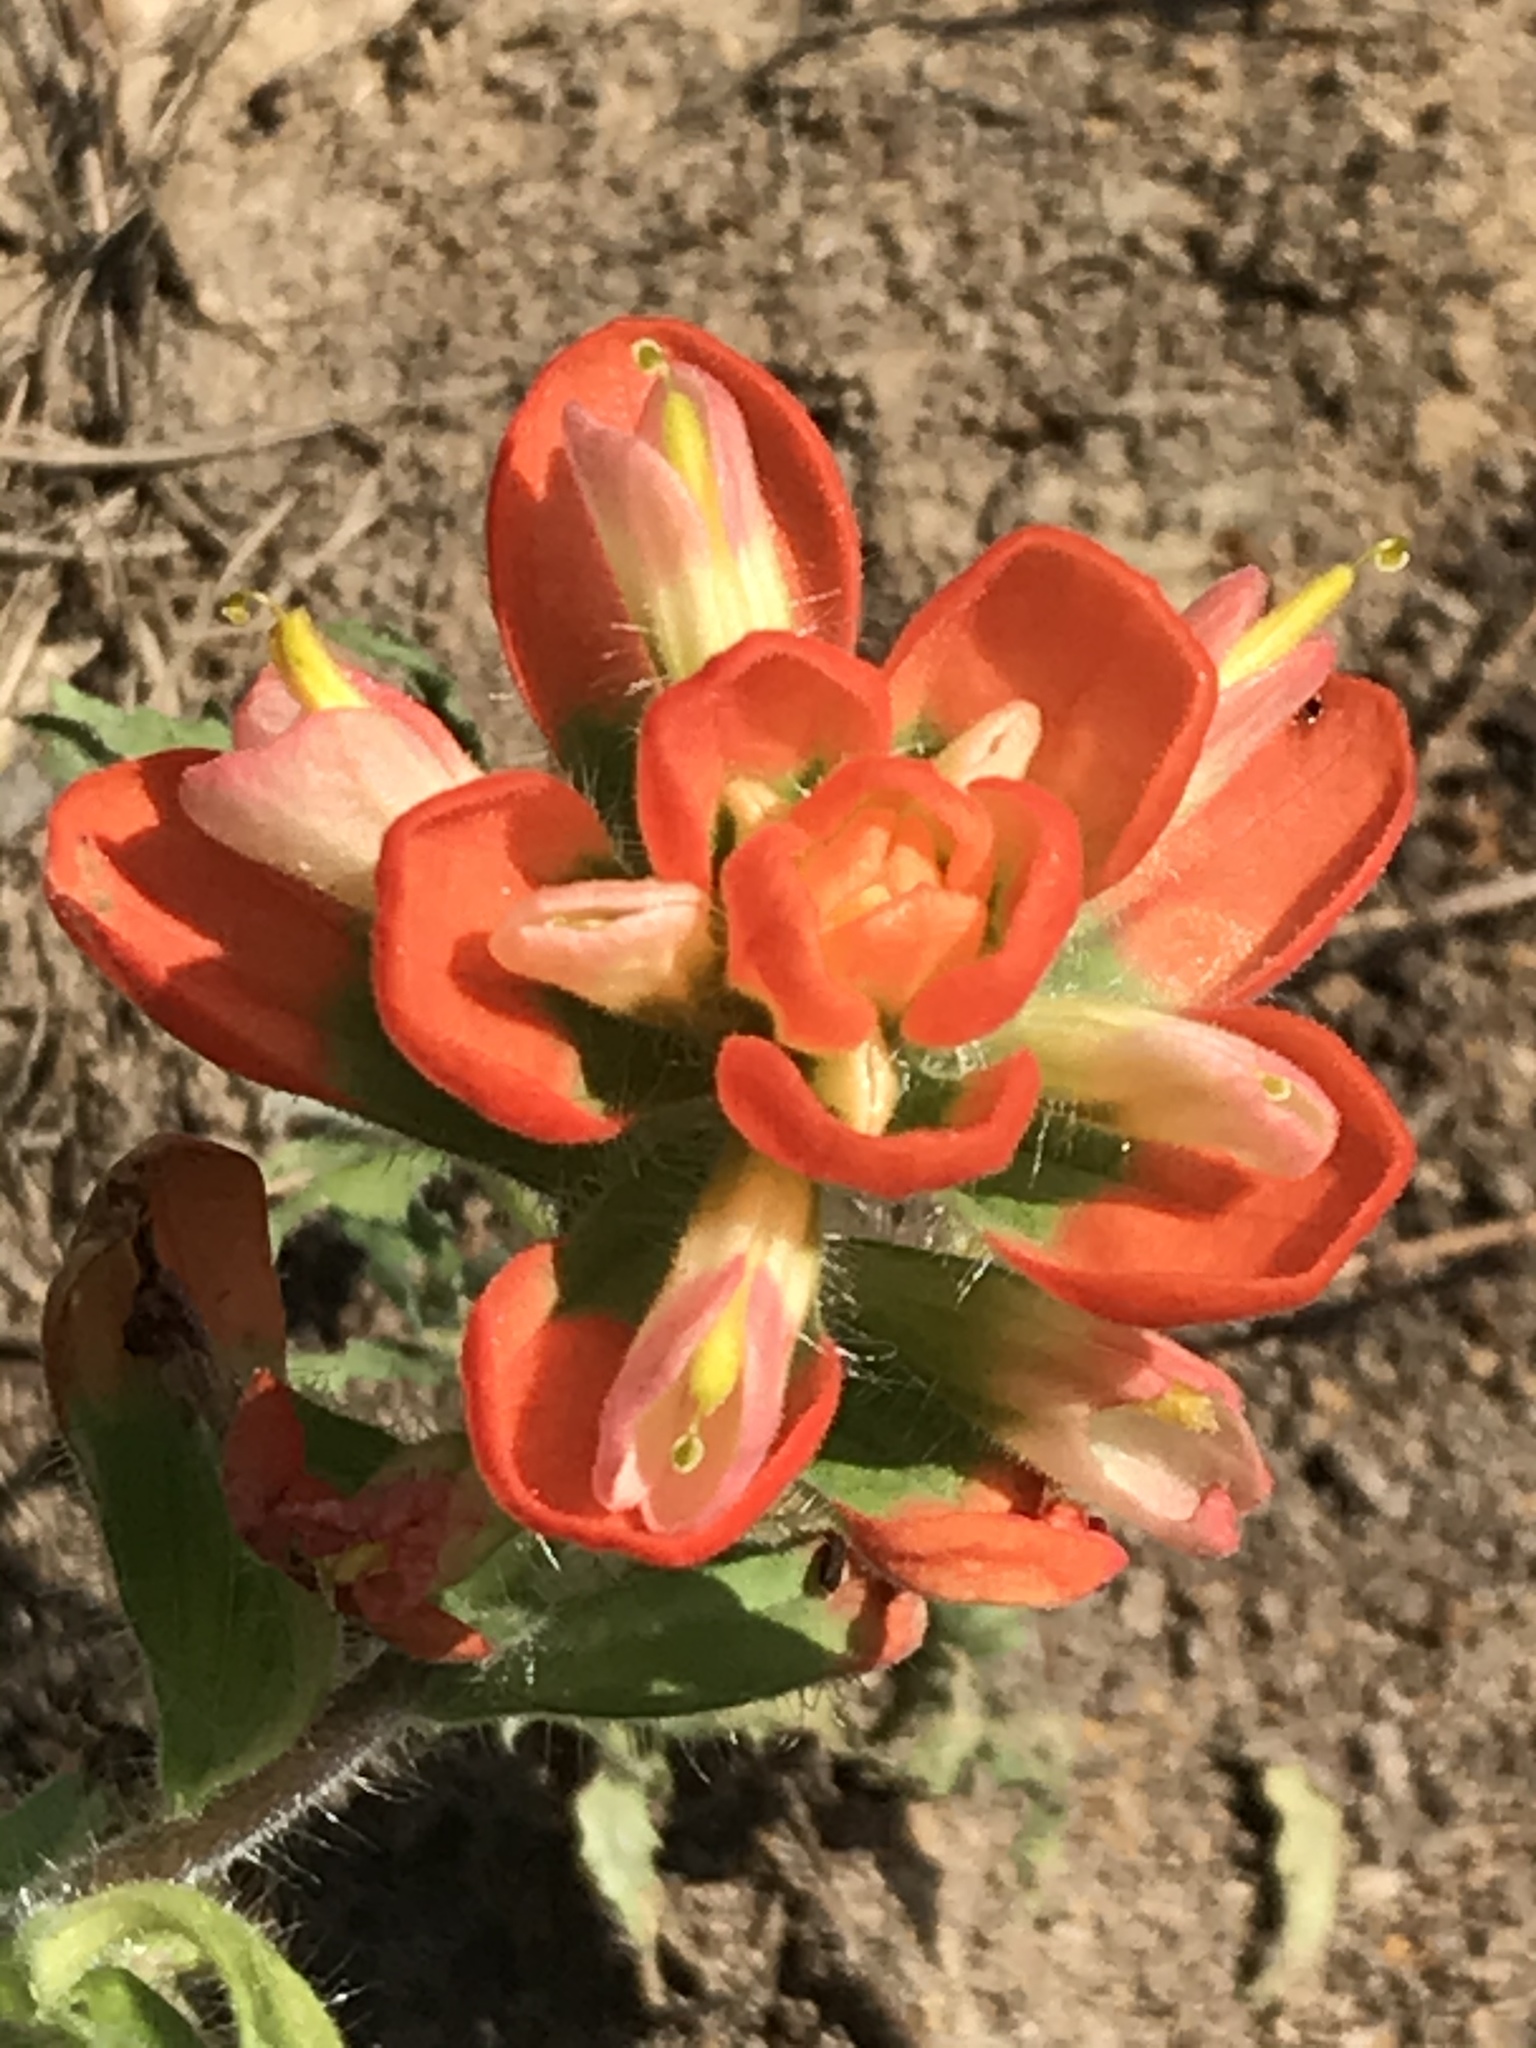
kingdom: Plantae
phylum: Tracheophyta
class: Magnoliopsida
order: Lamiales
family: Orobanchaceae
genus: Castilleja
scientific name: Castilleja indivisa
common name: Texas paintbrush
